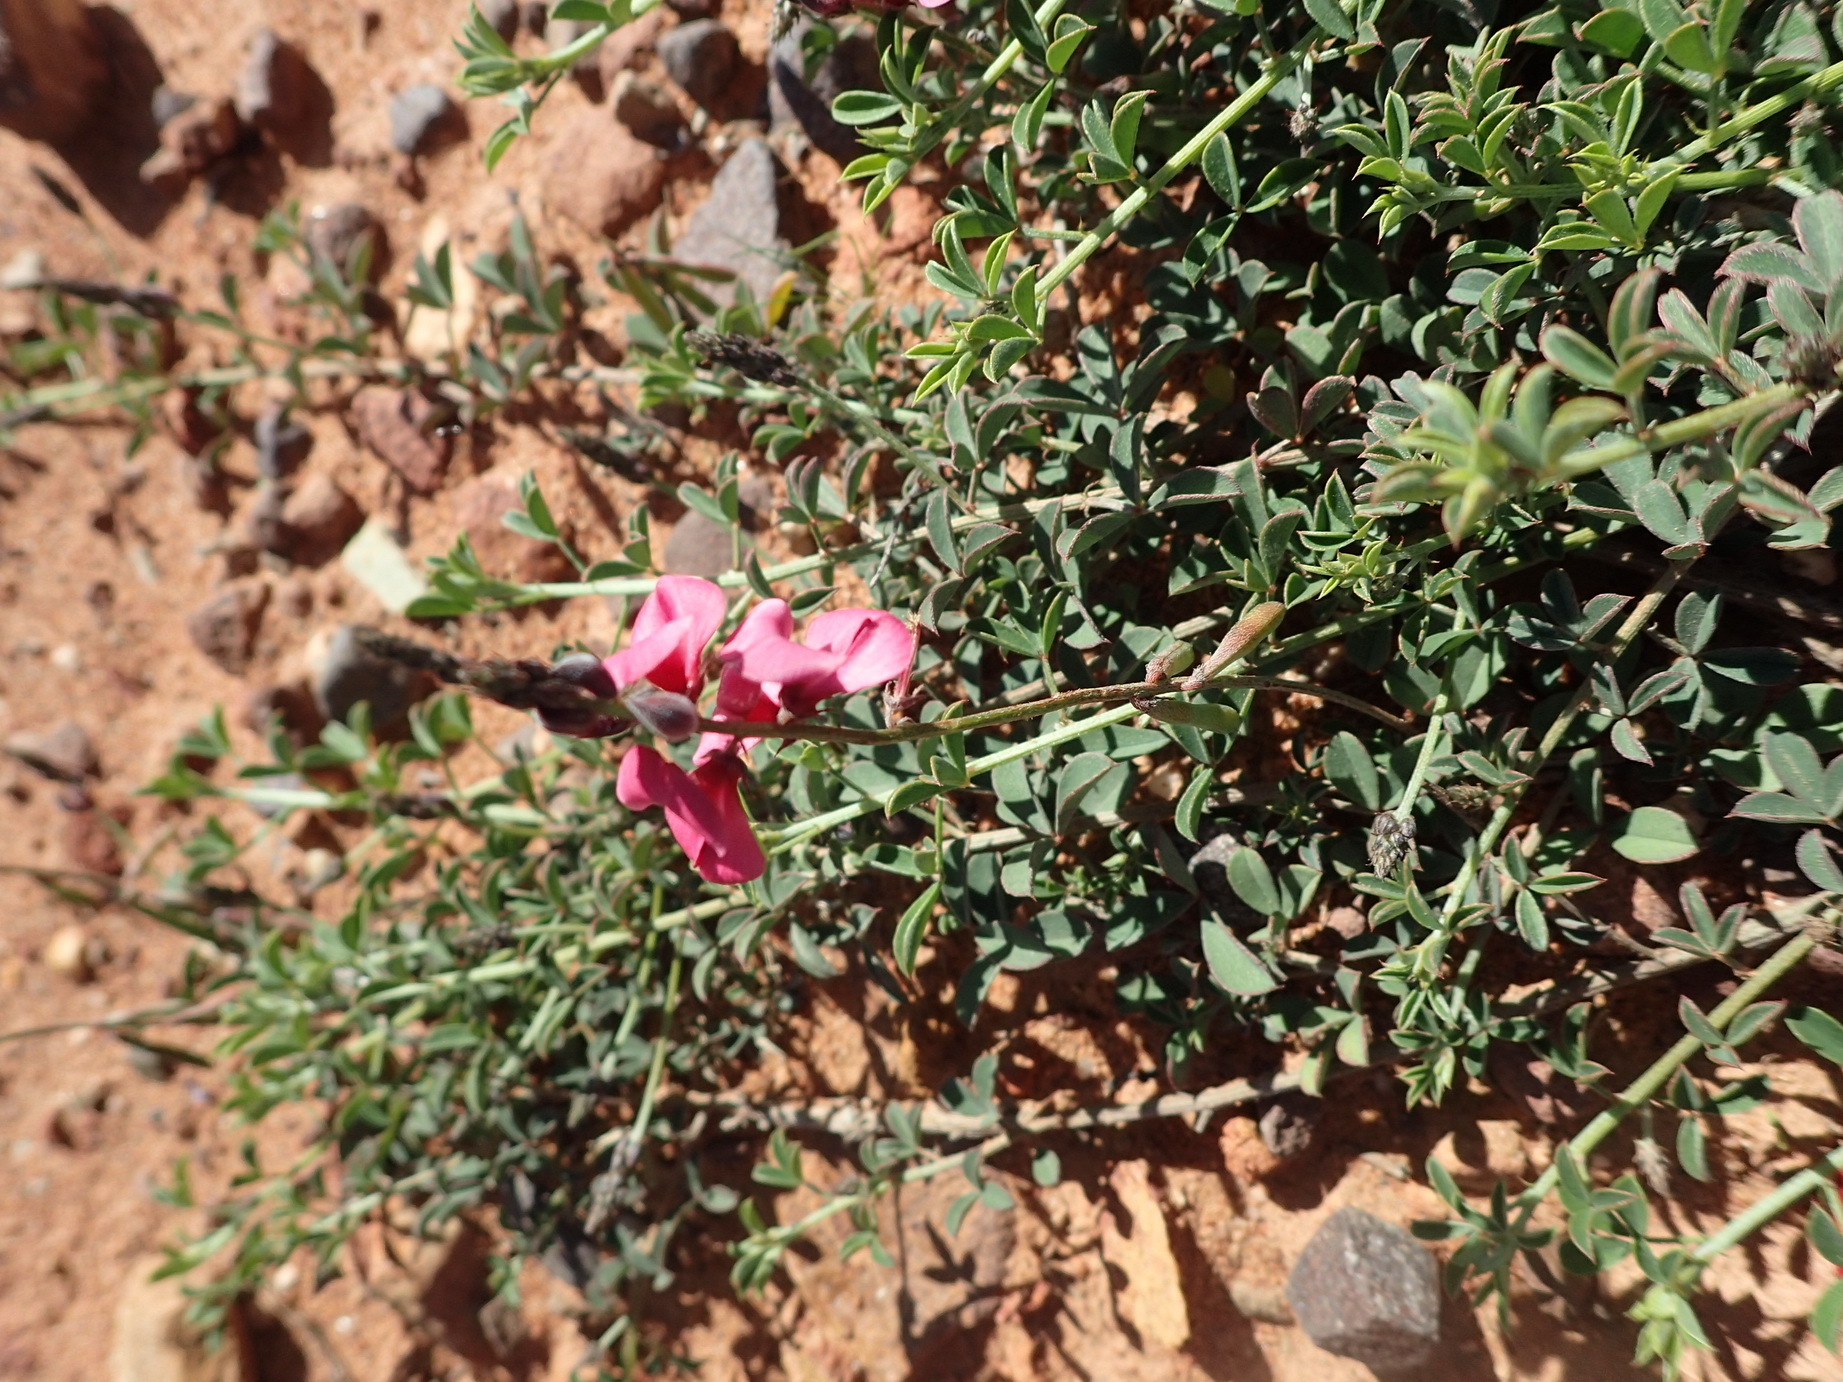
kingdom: Plantae
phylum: Tracheophyta
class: Magnoliopsida
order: Fabales
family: Fabaceae
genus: Indigofera
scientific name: Indigofera heterophylla
